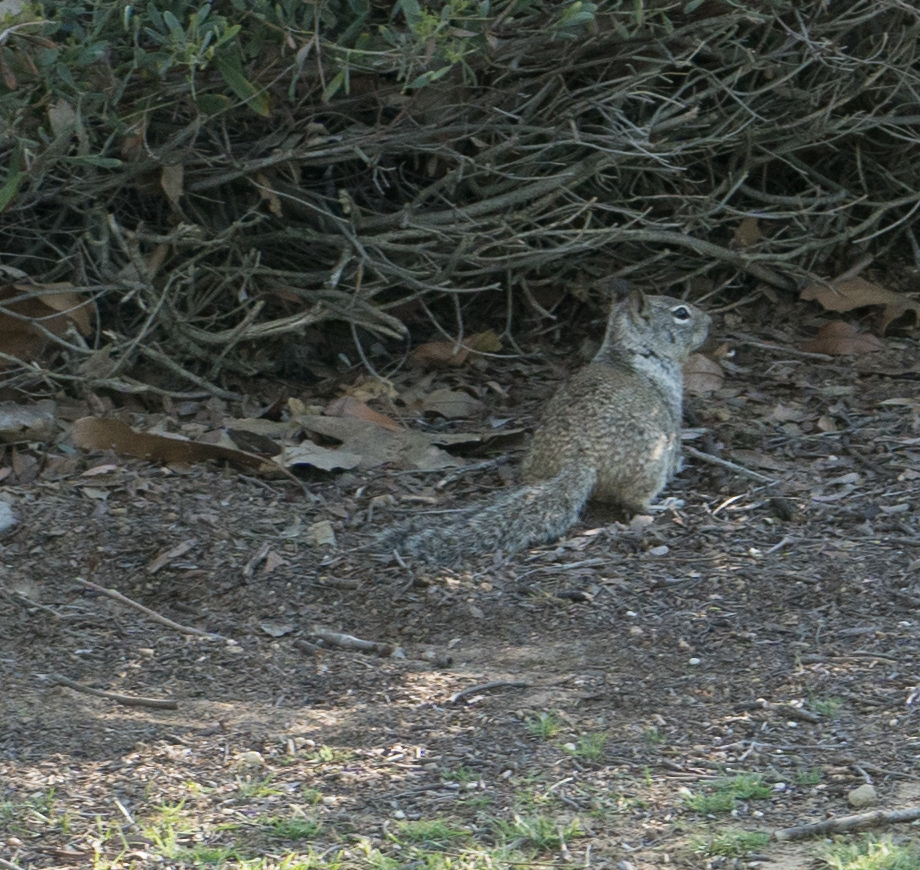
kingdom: Animalia
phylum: Chordata
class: Mammalia
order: Rodentia
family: Sciuridae
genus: Otospermophilus
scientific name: Otospermophilus beecheyi
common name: California ground squirrel
